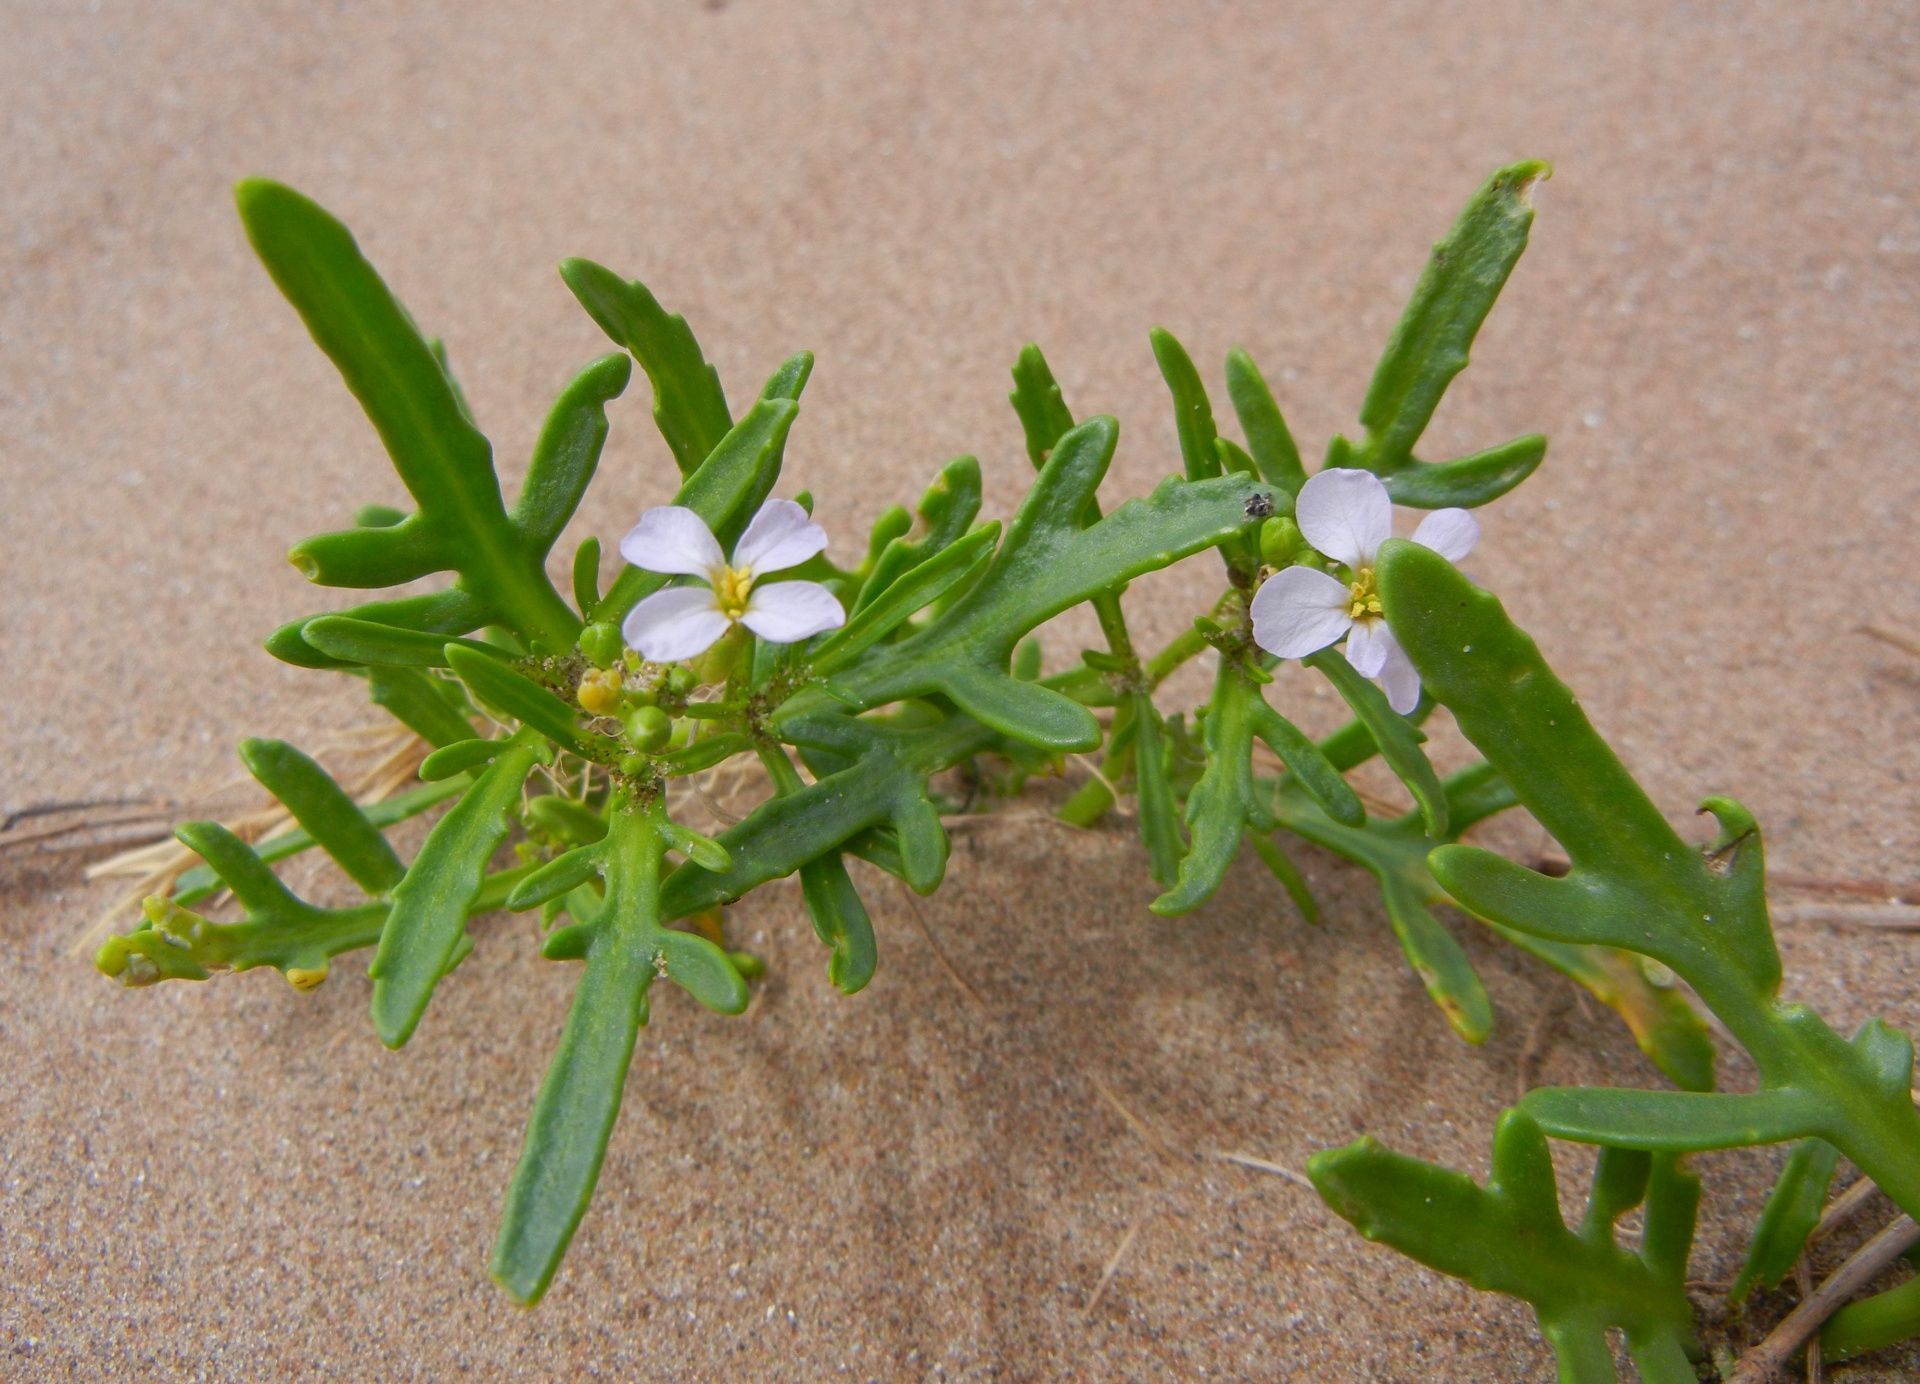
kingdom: Plantae
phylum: Tracheophyta
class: Magnoliopsida
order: Brassicales
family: Brassicaceae
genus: Cakile
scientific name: Cakile maritima
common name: Sea rocket
